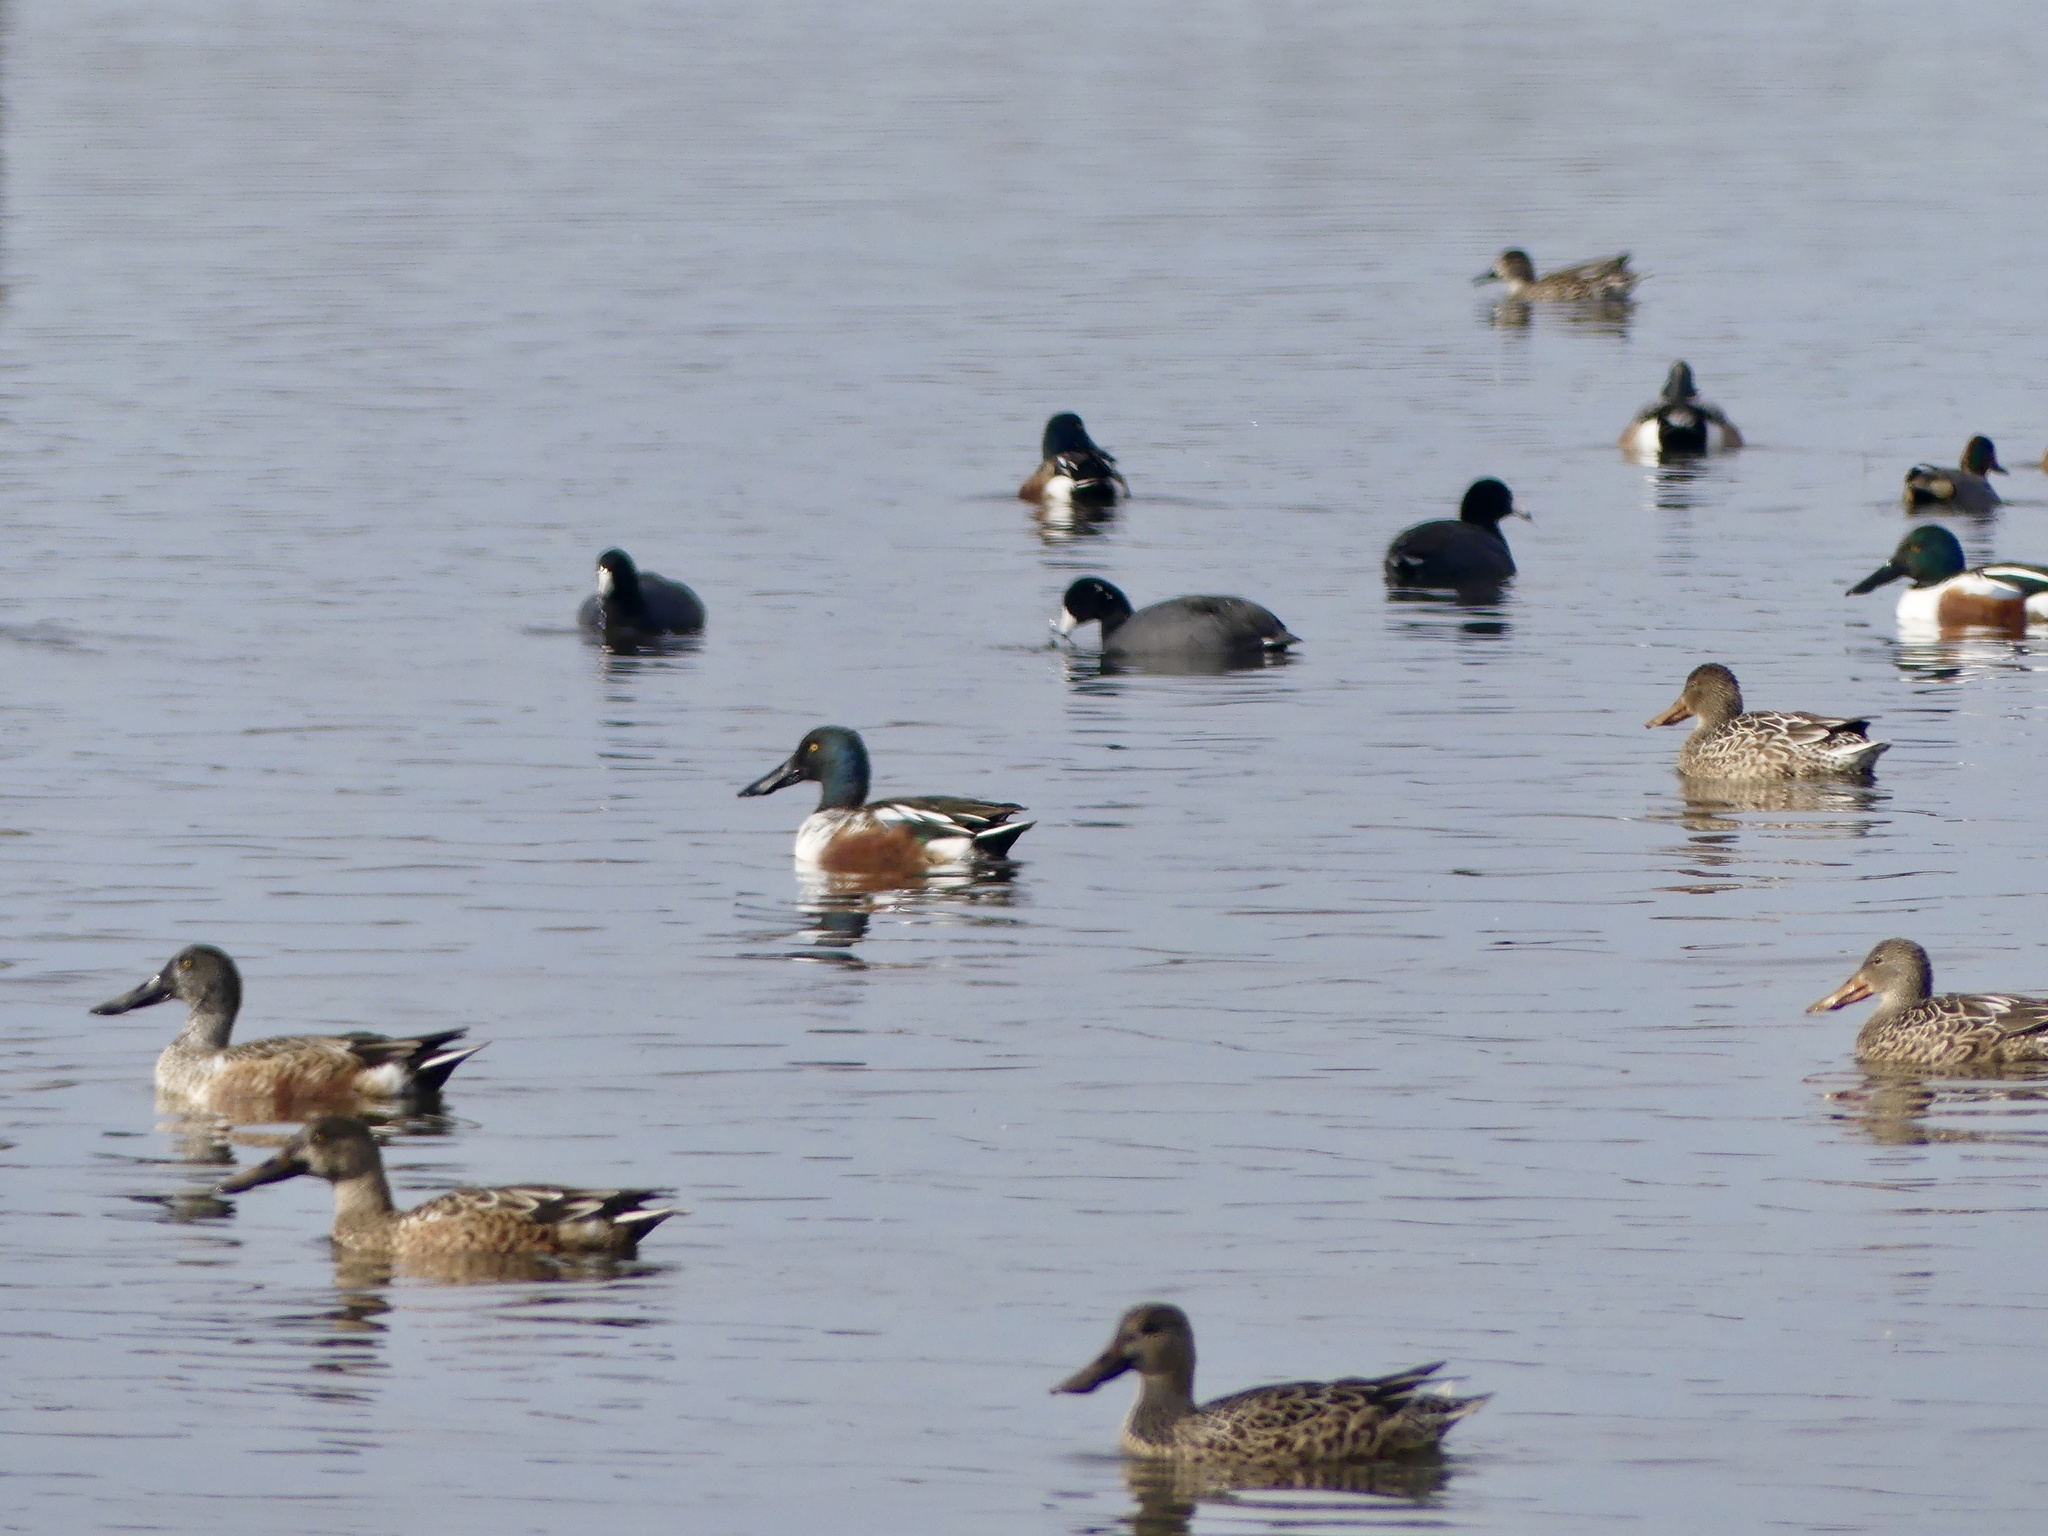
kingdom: Animalia
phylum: Chordata
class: Aves
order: Anseriformes
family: Anatidae
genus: Spatula
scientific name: Spatula clypeata
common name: Northern shoveler
